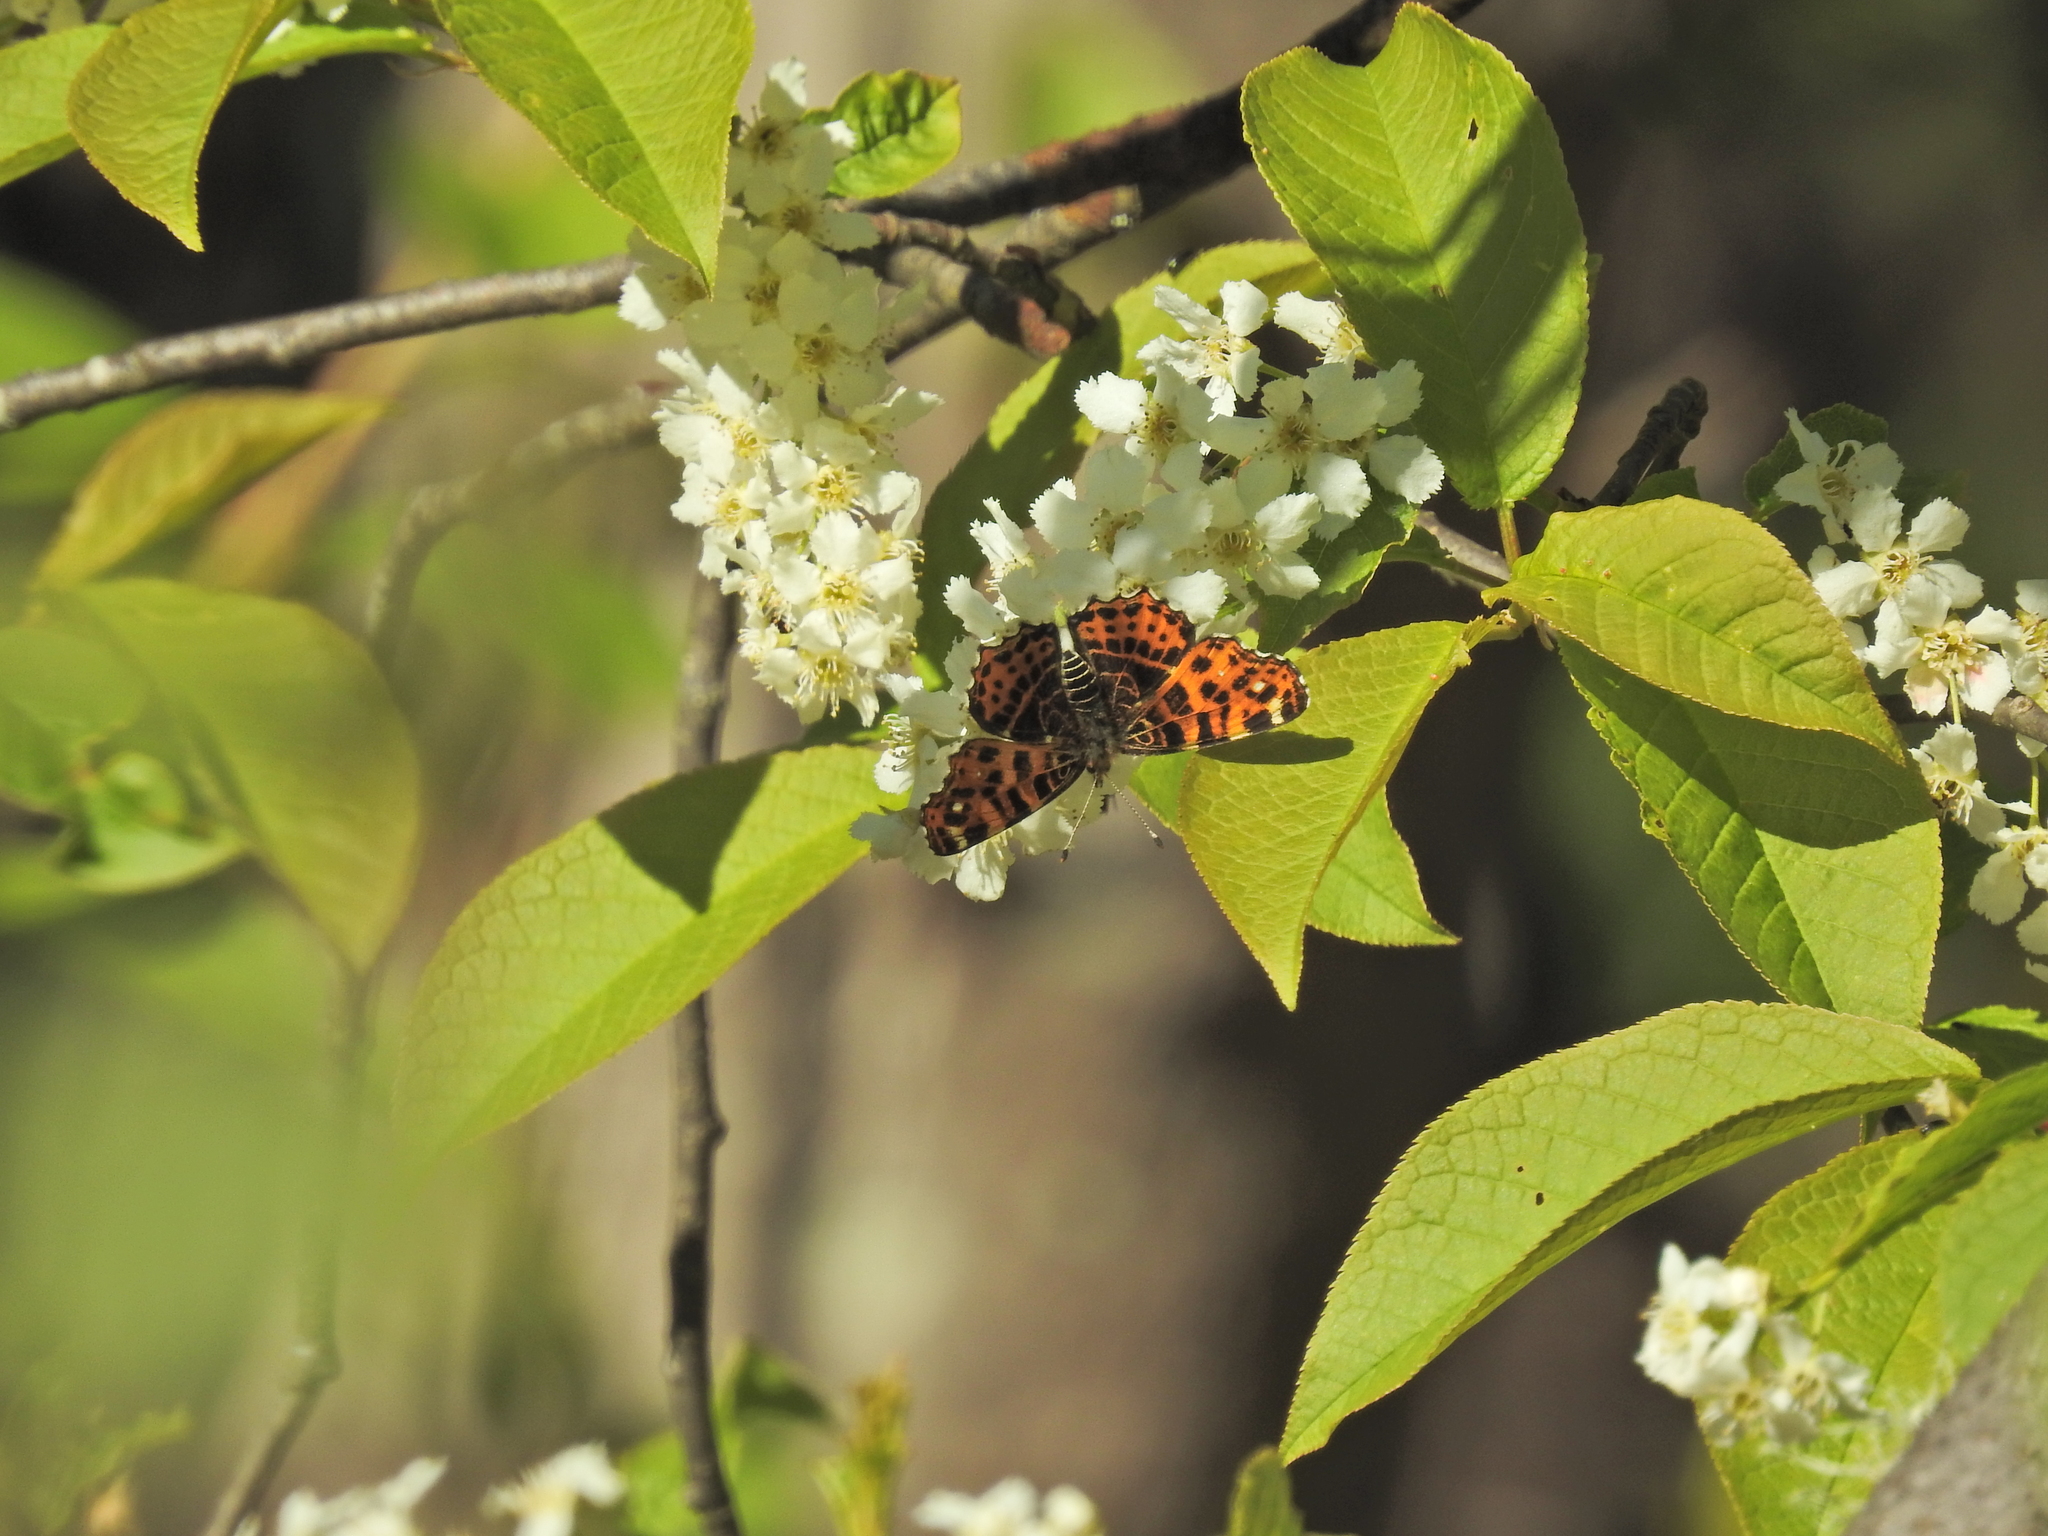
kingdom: Animalia
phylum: Arthropoda
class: Insecta
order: Lepidoptera
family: Nymphalidae
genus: Araschnia
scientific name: Araschnia levana
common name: Map butterfly
